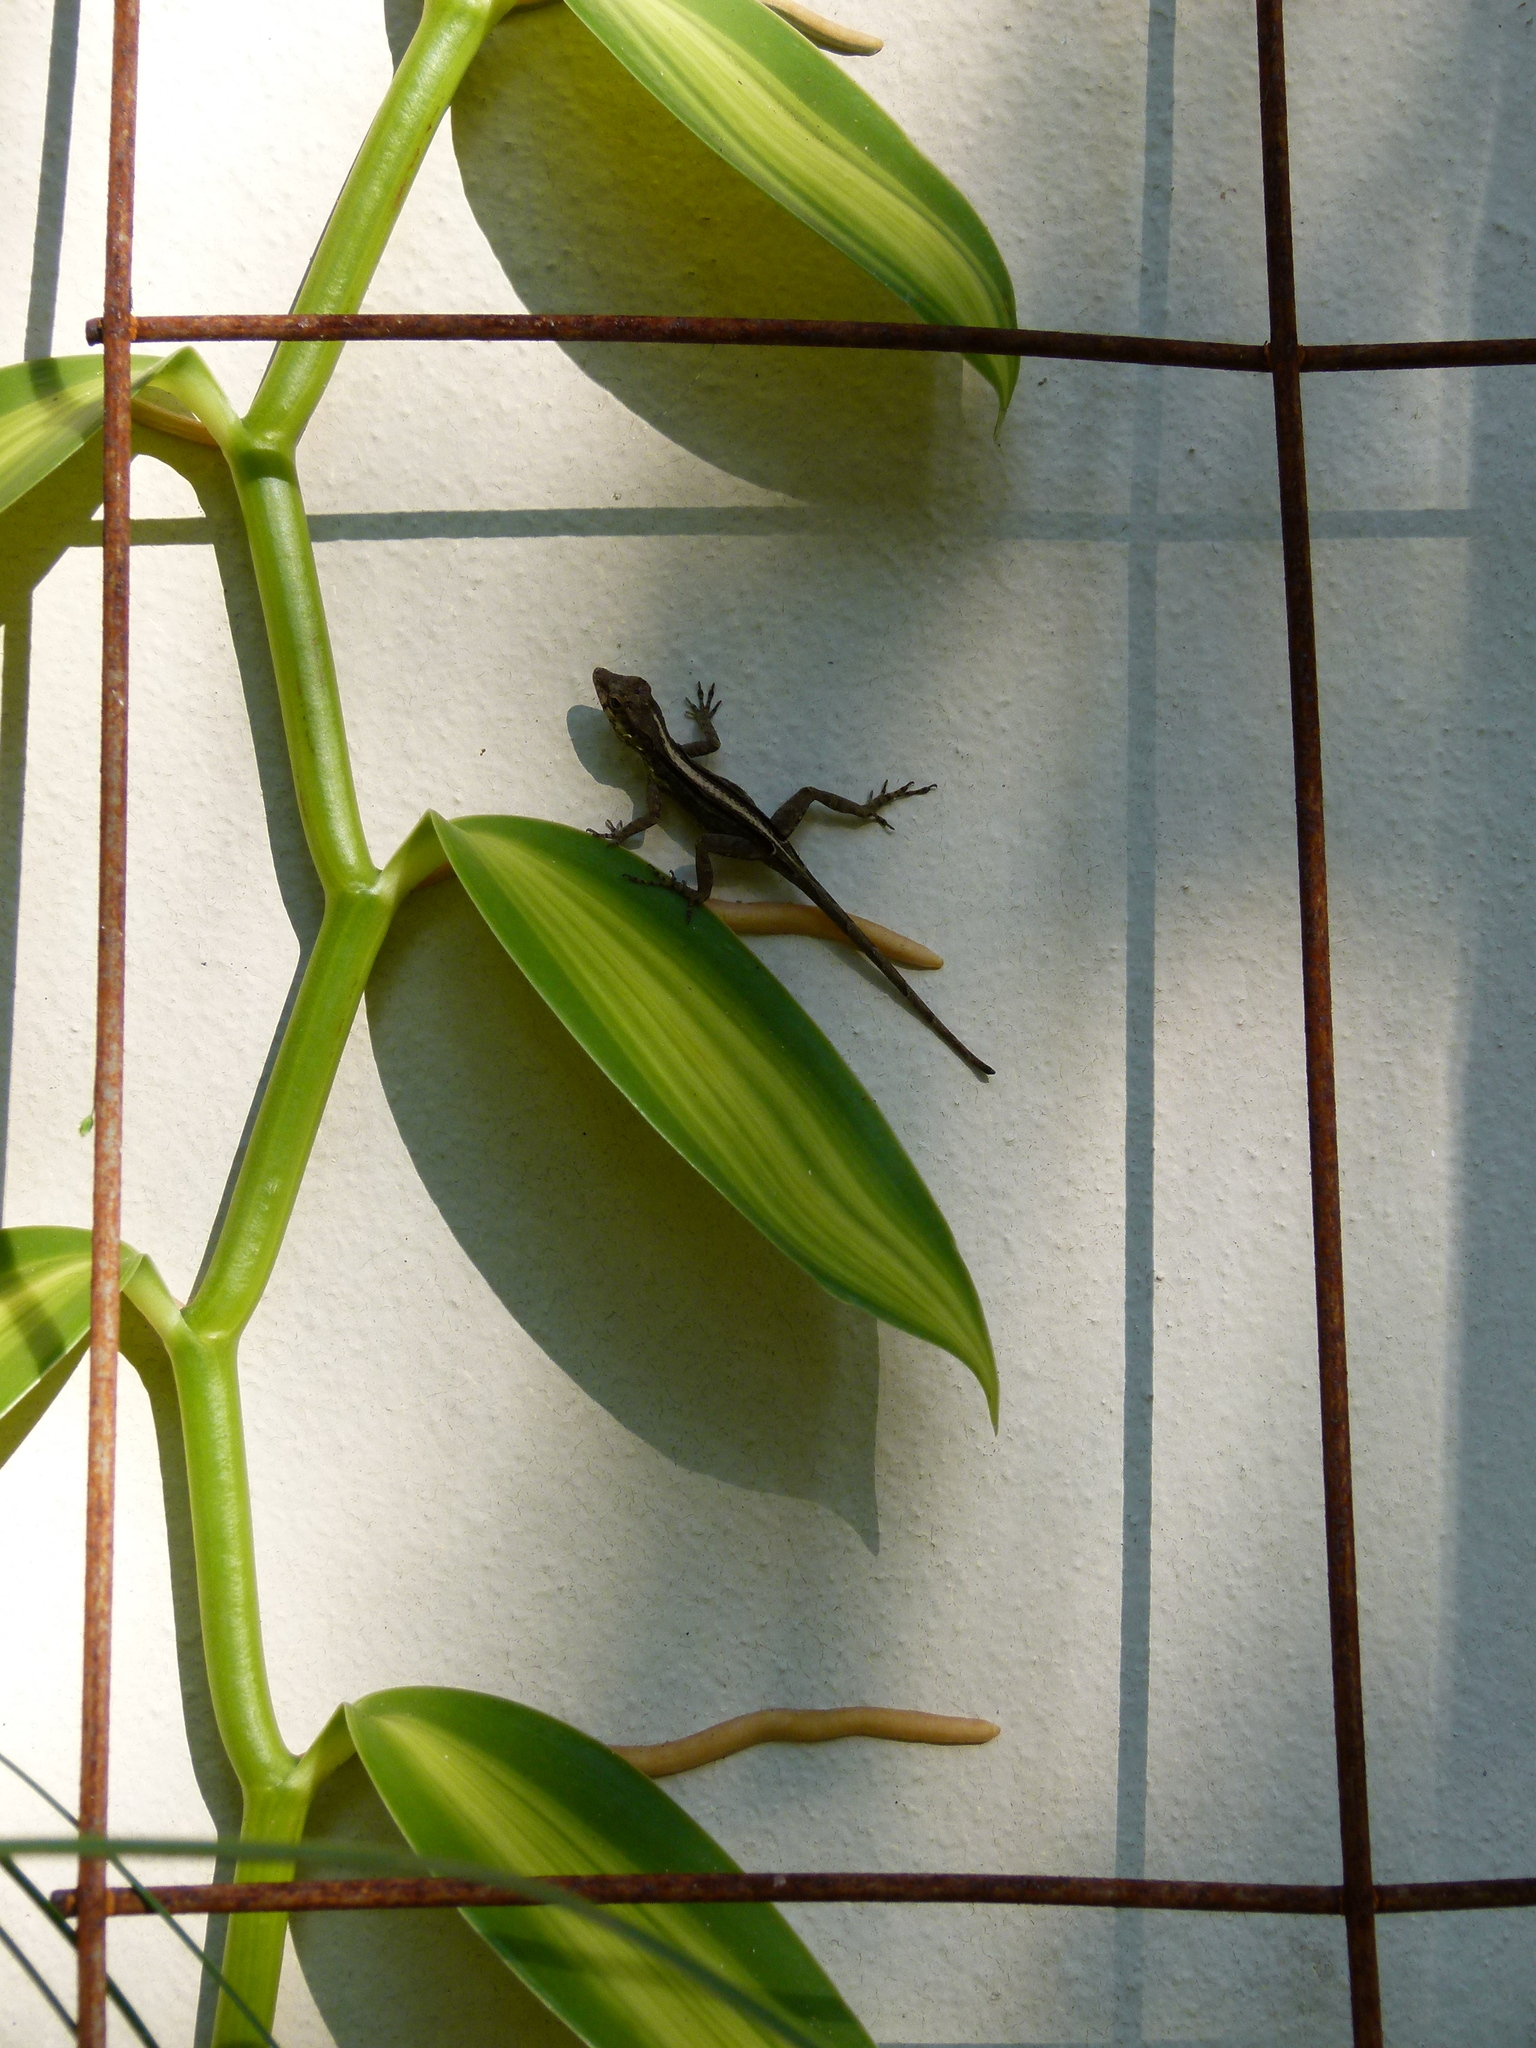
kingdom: Animalia
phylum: Chordata
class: Squamata
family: Dactyloidae
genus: Anolis
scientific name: Anolis cristatellus
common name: Crested anole
